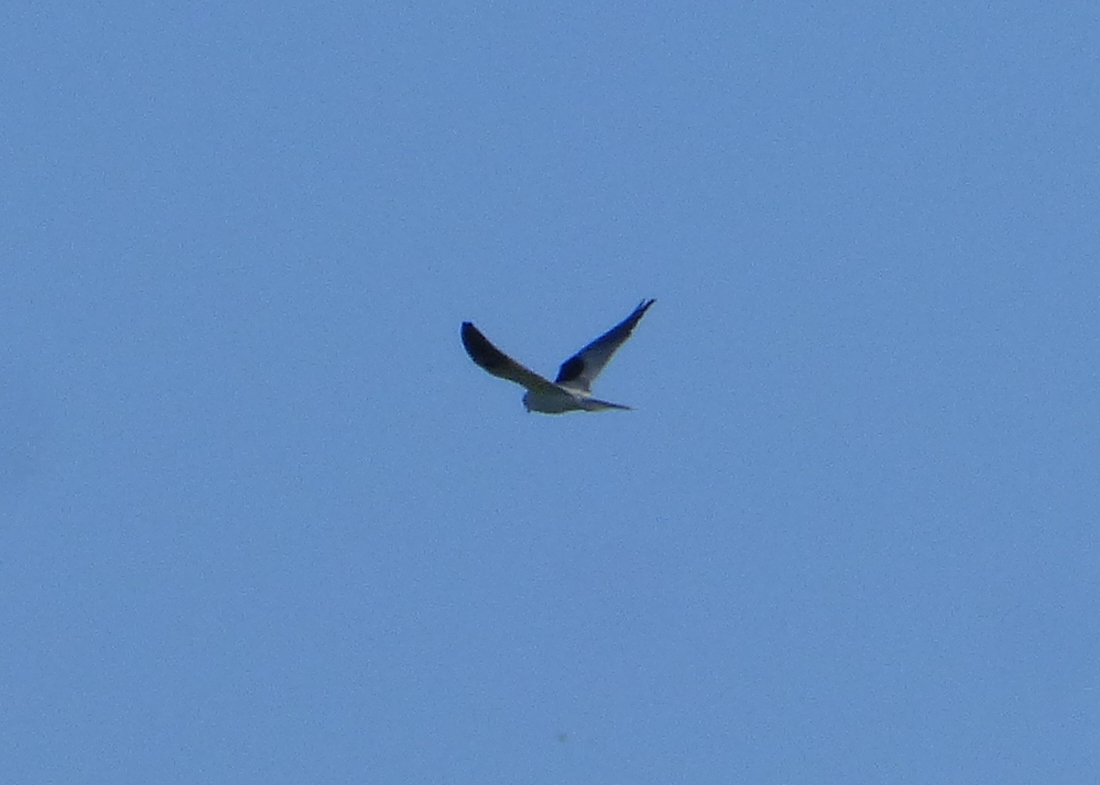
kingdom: Animalia
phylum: Chordata
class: Aves
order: Accipitriformes
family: Accipitridae
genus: Elanus
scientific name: Elanus leucurus
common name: White-tailed kite
